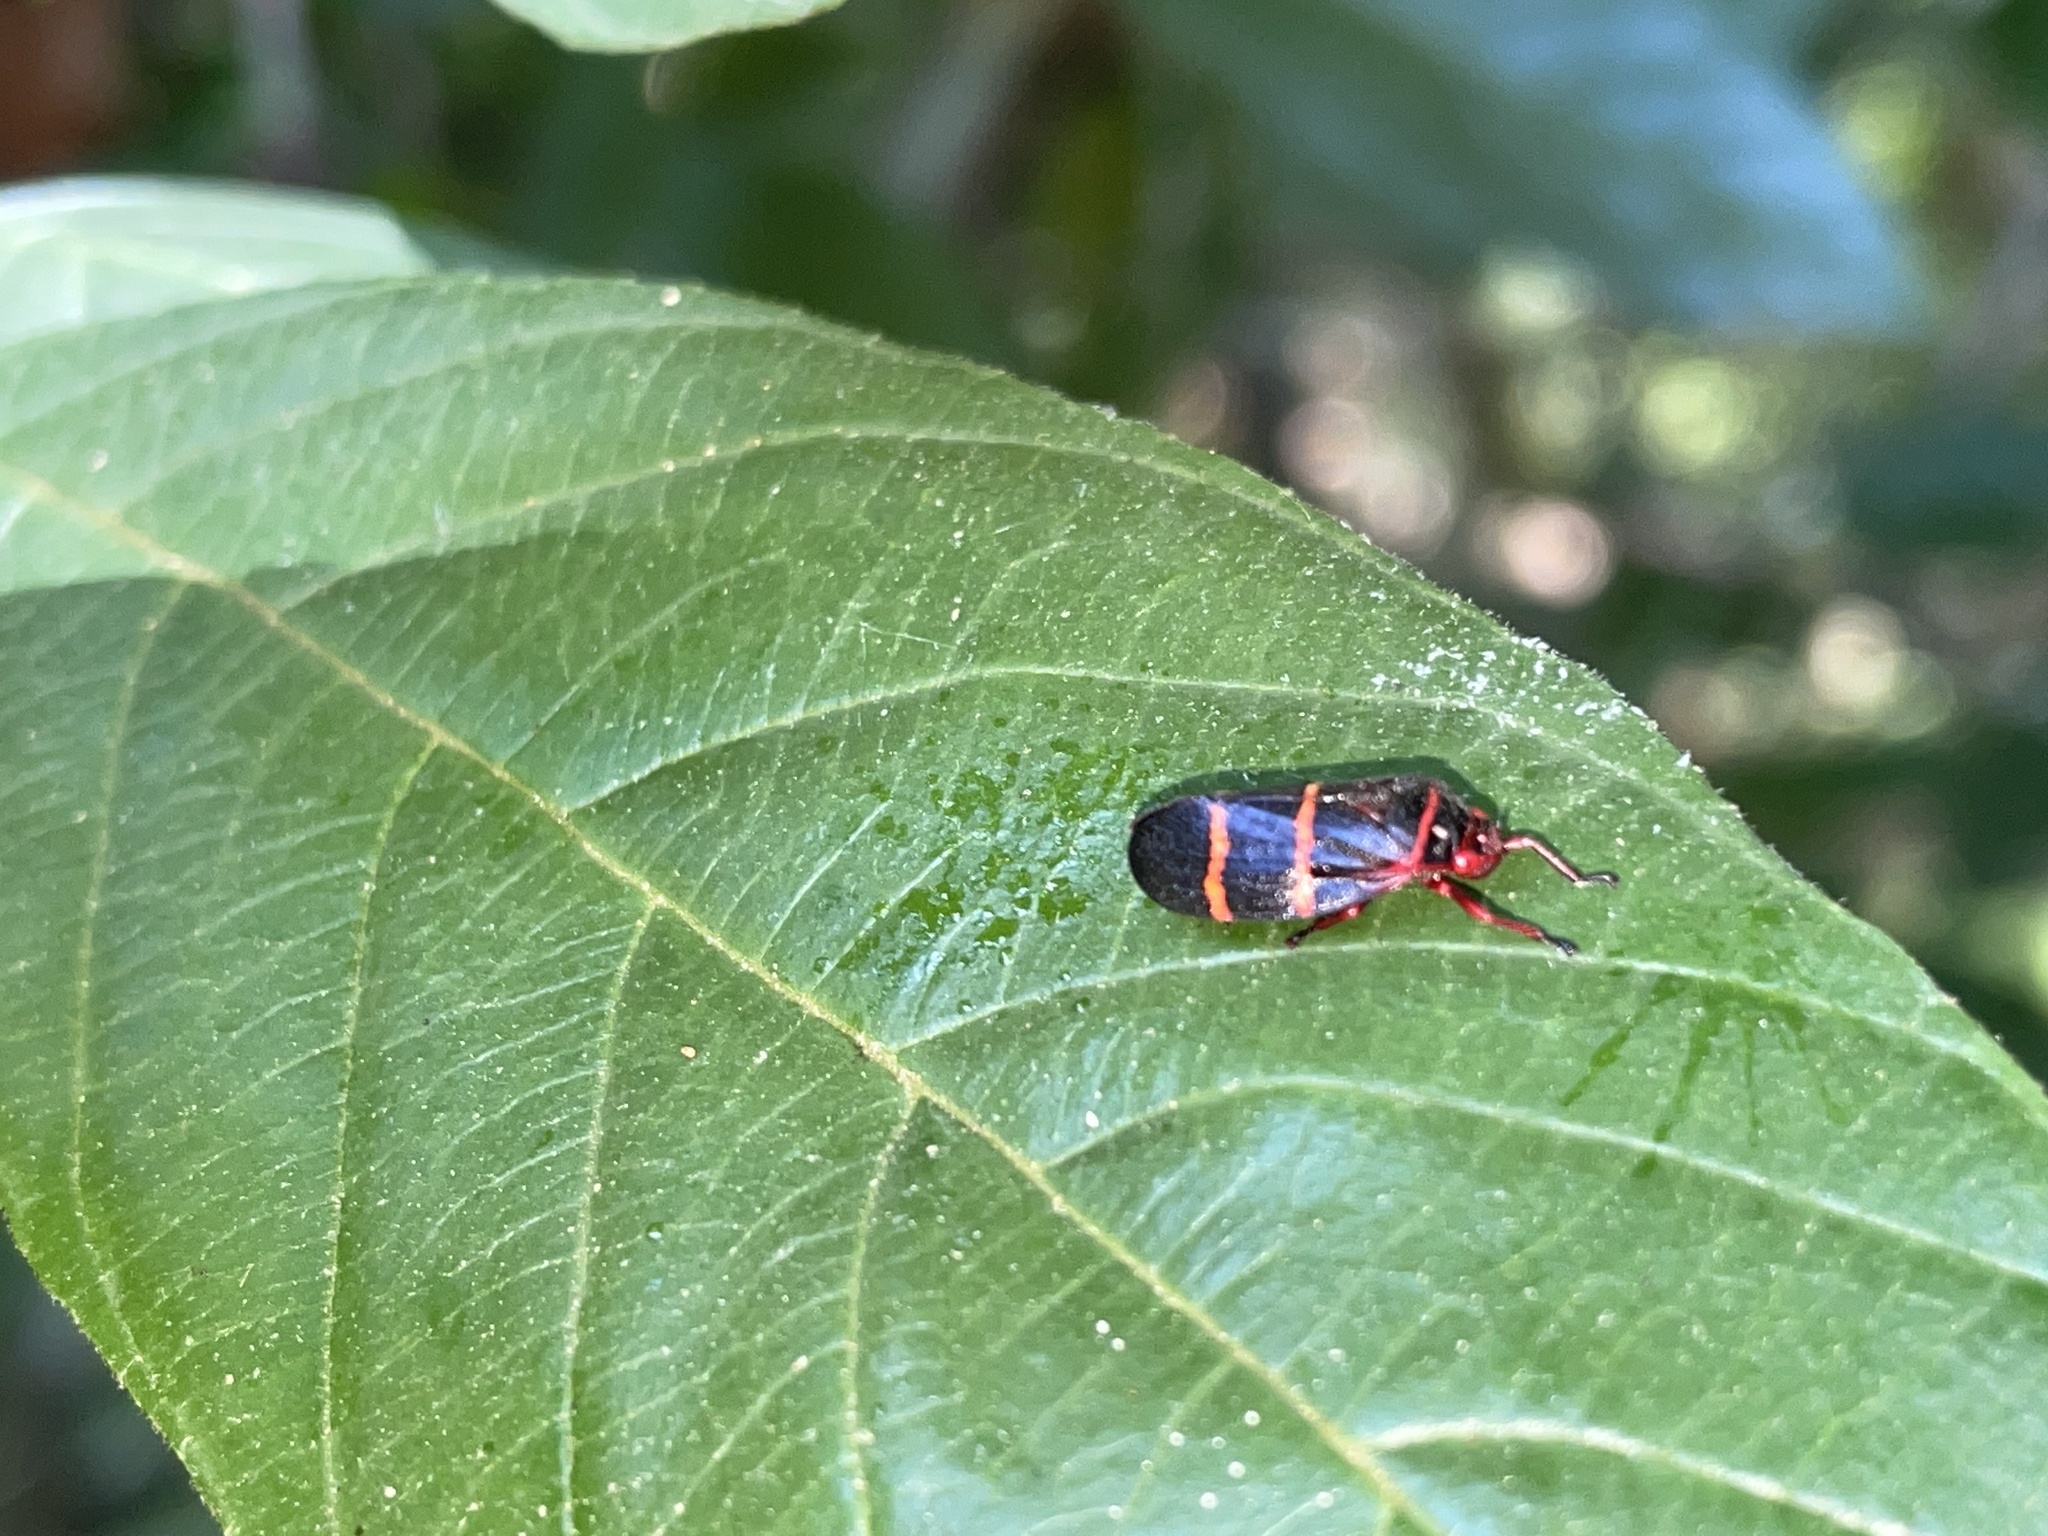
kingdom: Animalia
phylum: Arthropoda
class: Insecta
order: Hemiptera
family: Cercopidae
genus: Prosapia
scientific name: Prosapia bicincta
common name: Twolined spittlebug
